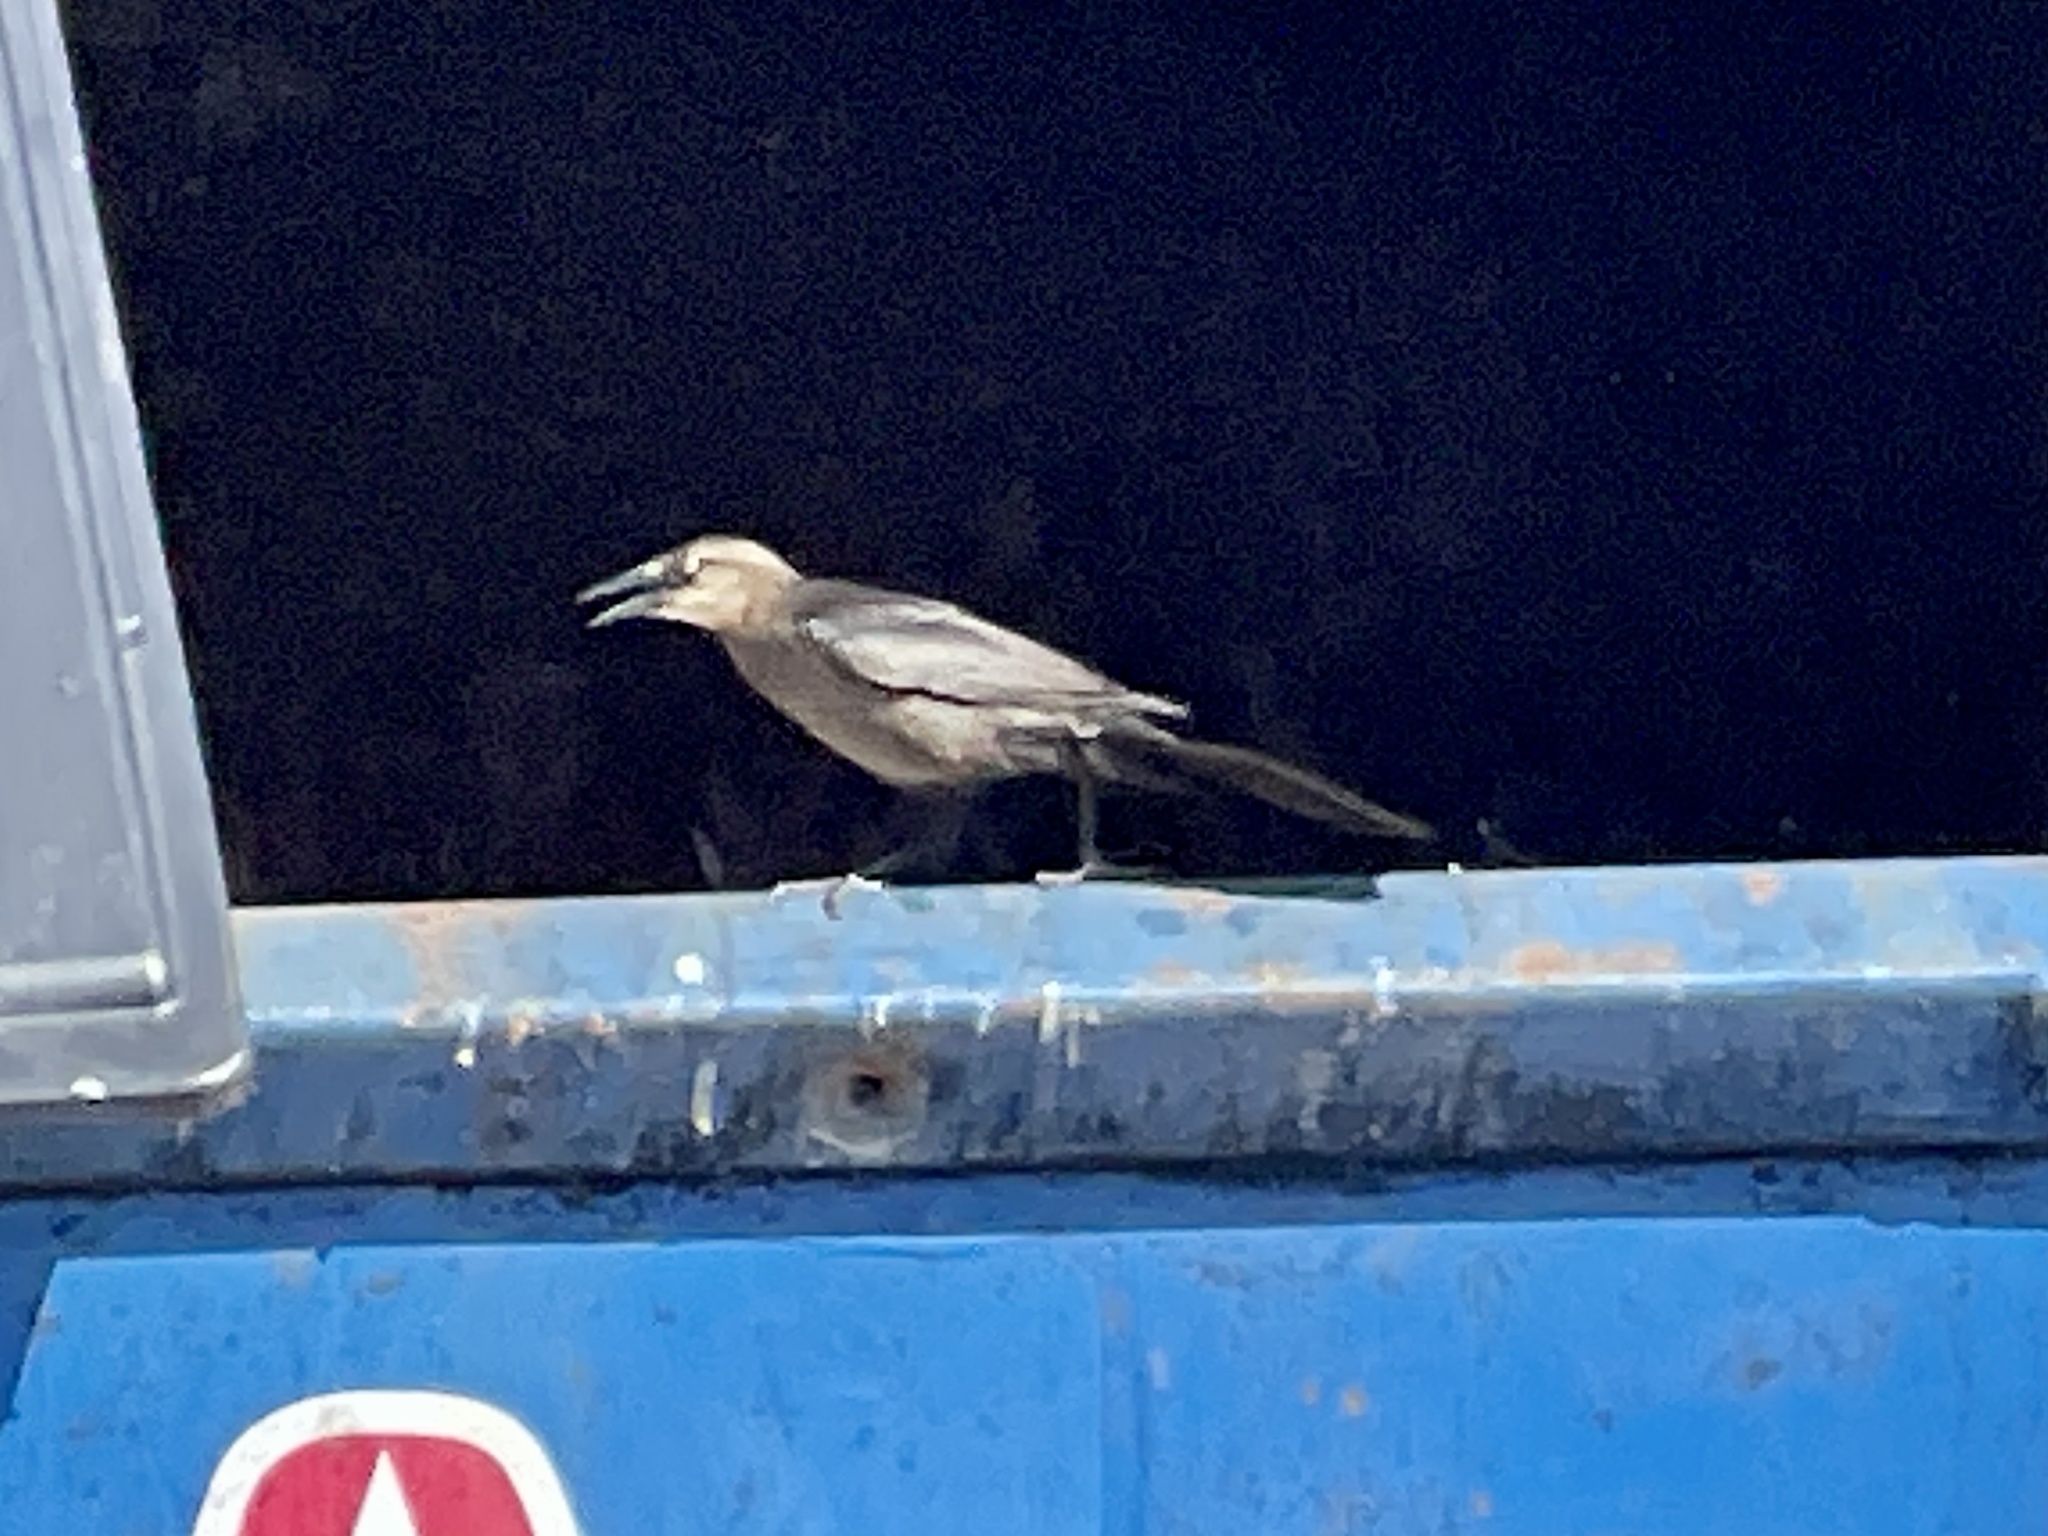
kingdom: Animalia
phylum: Chordata
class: Aves
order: Passeriformes
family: Icteridae
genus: Quiscalus
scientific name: Quiscalus mexicanus
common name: Great-tailed grackle
